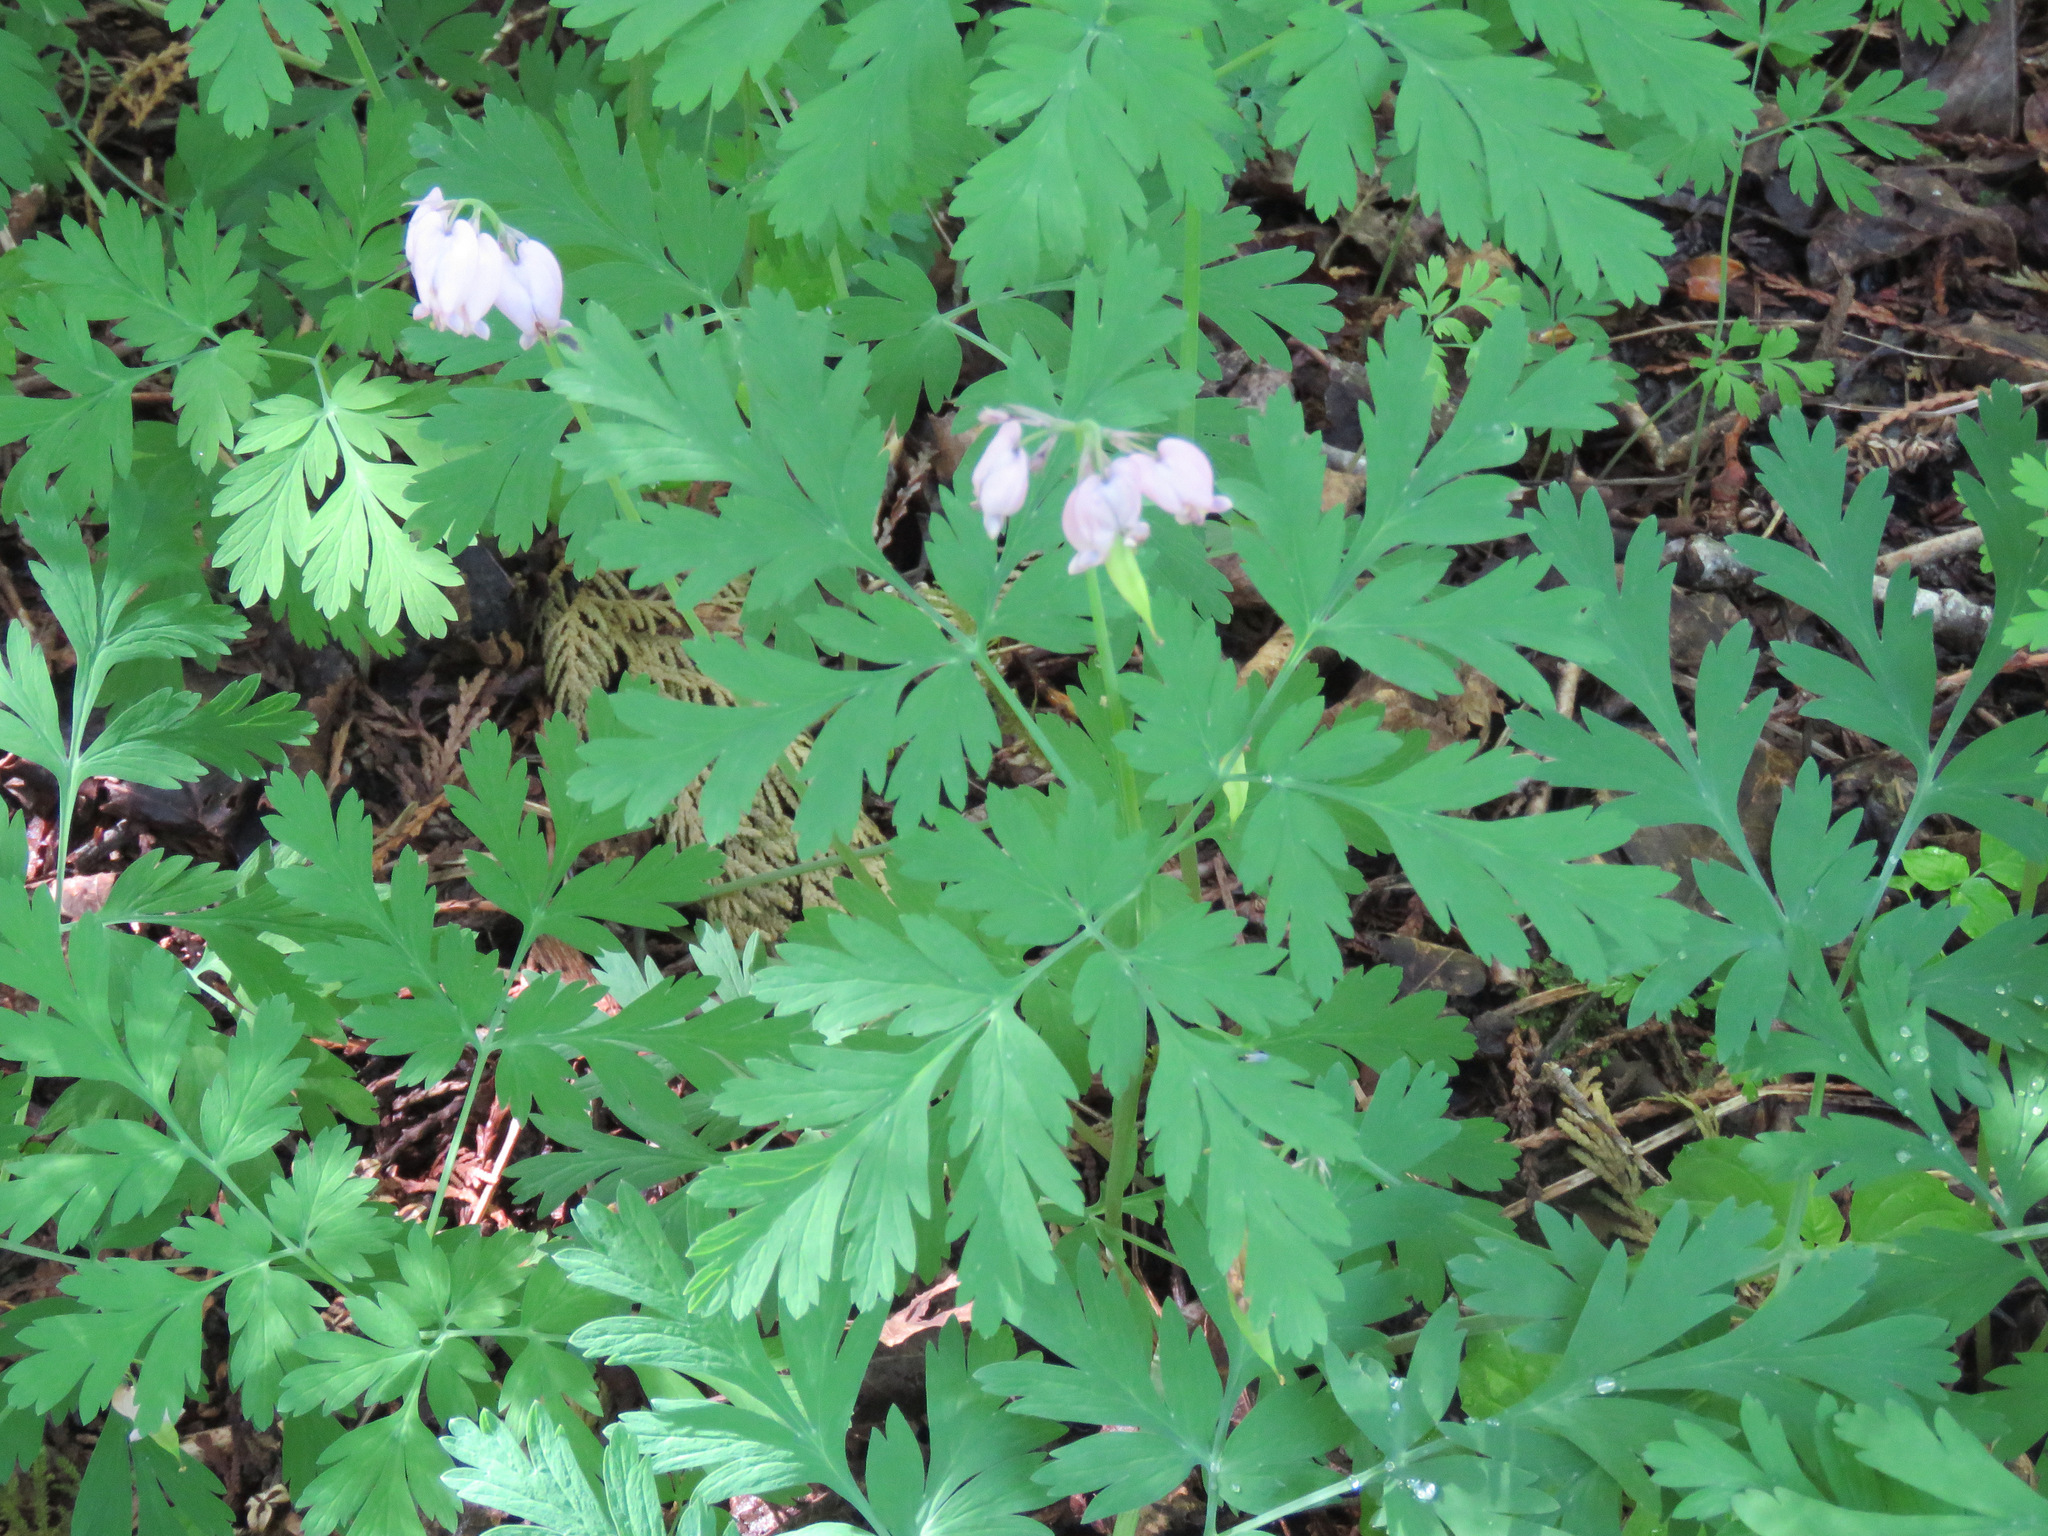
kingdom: Plantae
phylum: Tracheophyta
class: Magnoliopsida
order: Ranunculales
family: Papaveraceae
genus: Dicentra
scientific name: Dicentra formosa
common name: Bleeding-heart
